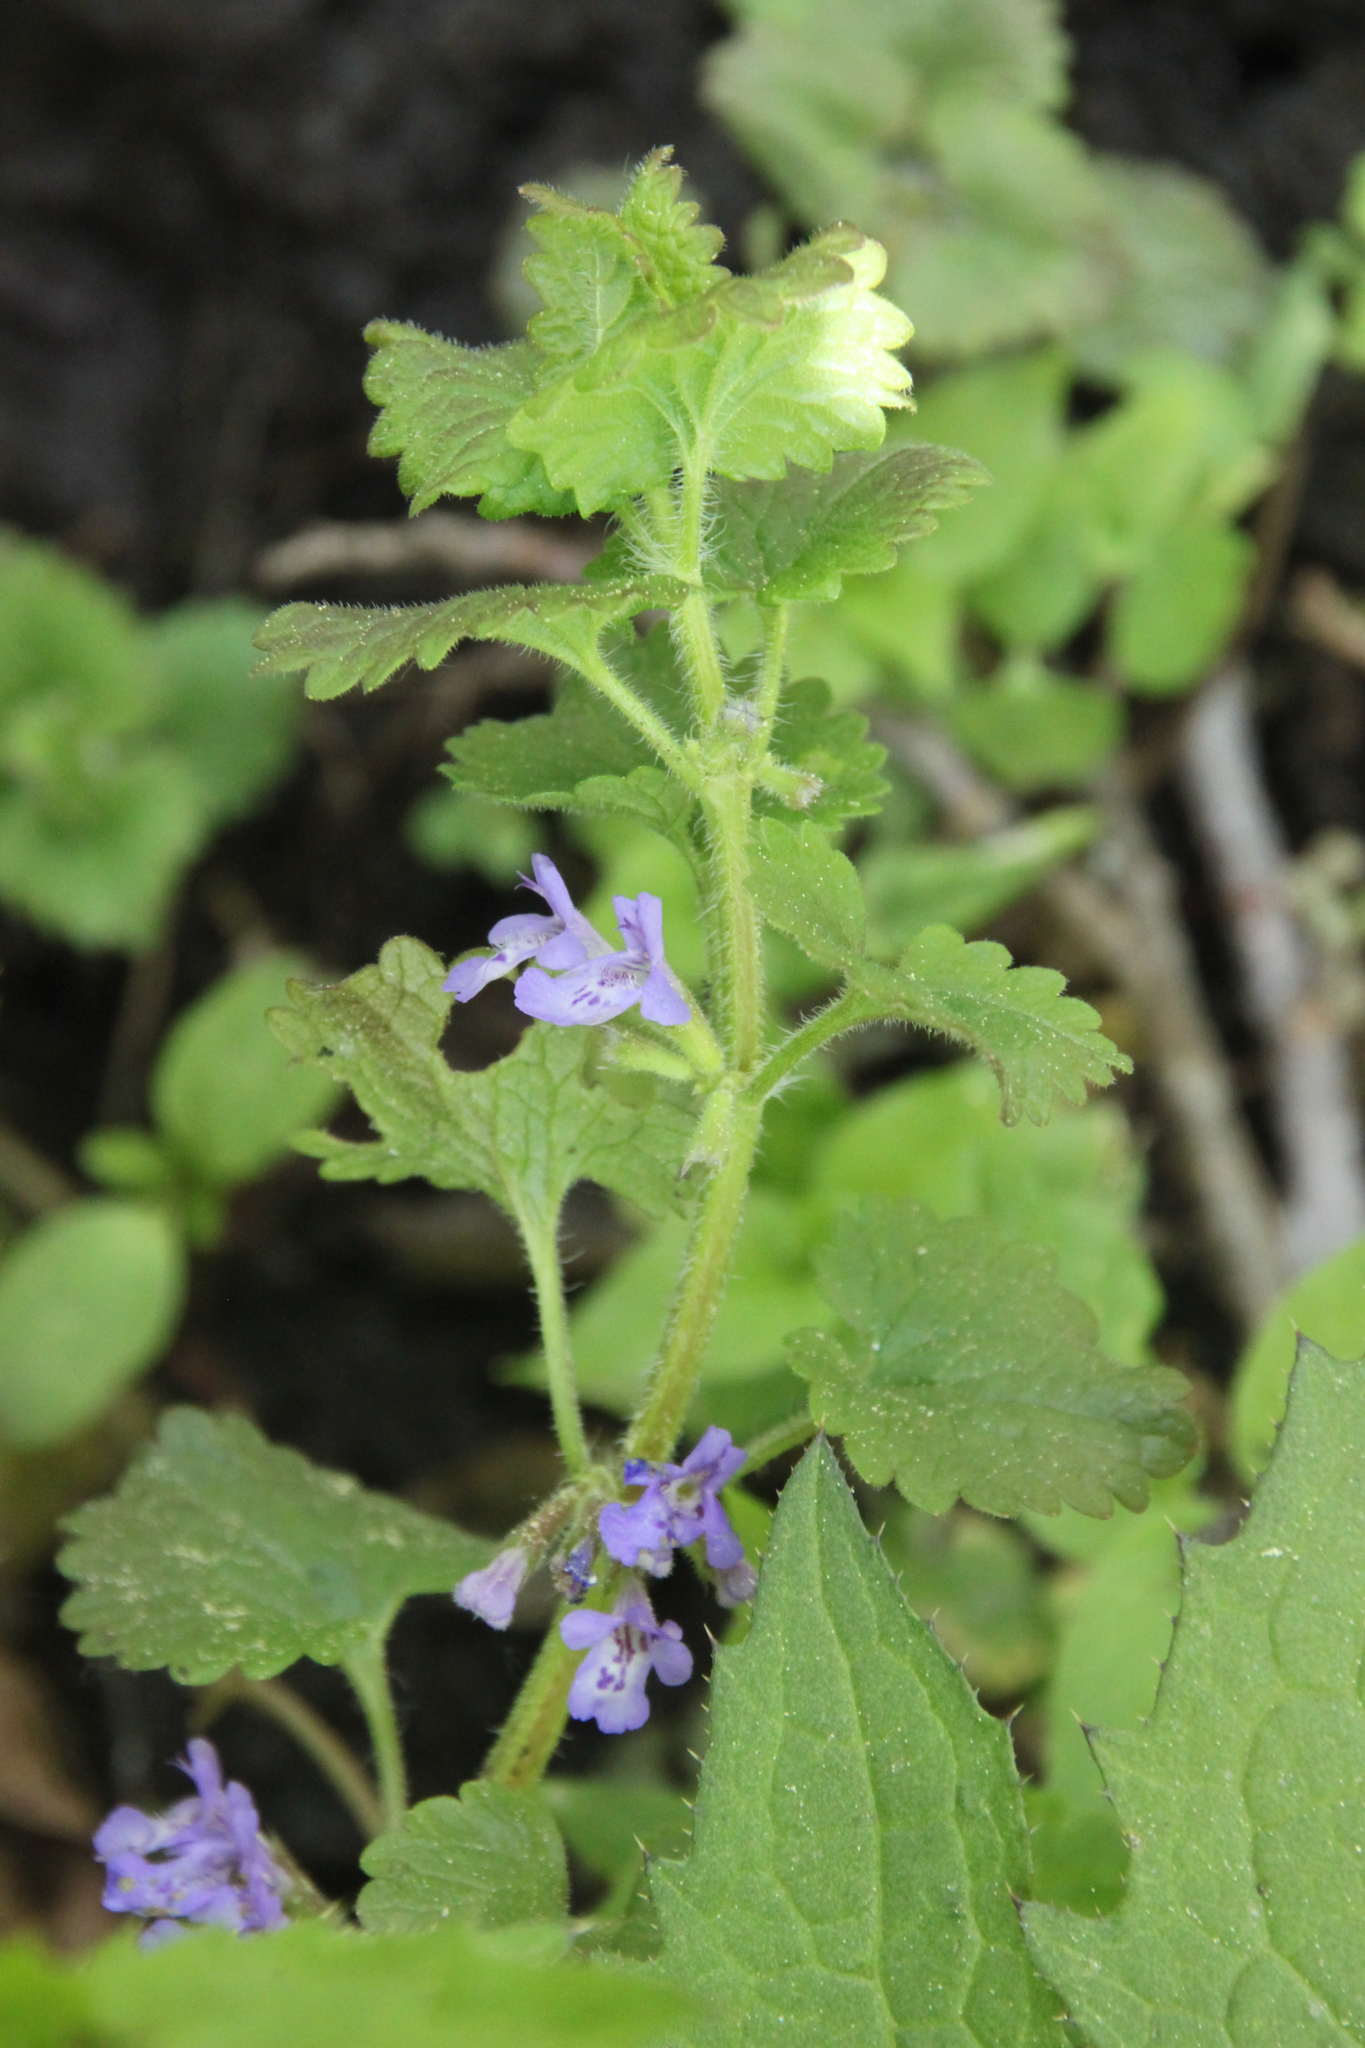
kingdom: Plantae
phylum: Tracheophyta
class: Magnoliopsida
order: Lamiales
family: Lamiaceae
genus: Glechoma
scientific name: Glechoma hederacea
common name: Ground ivy
